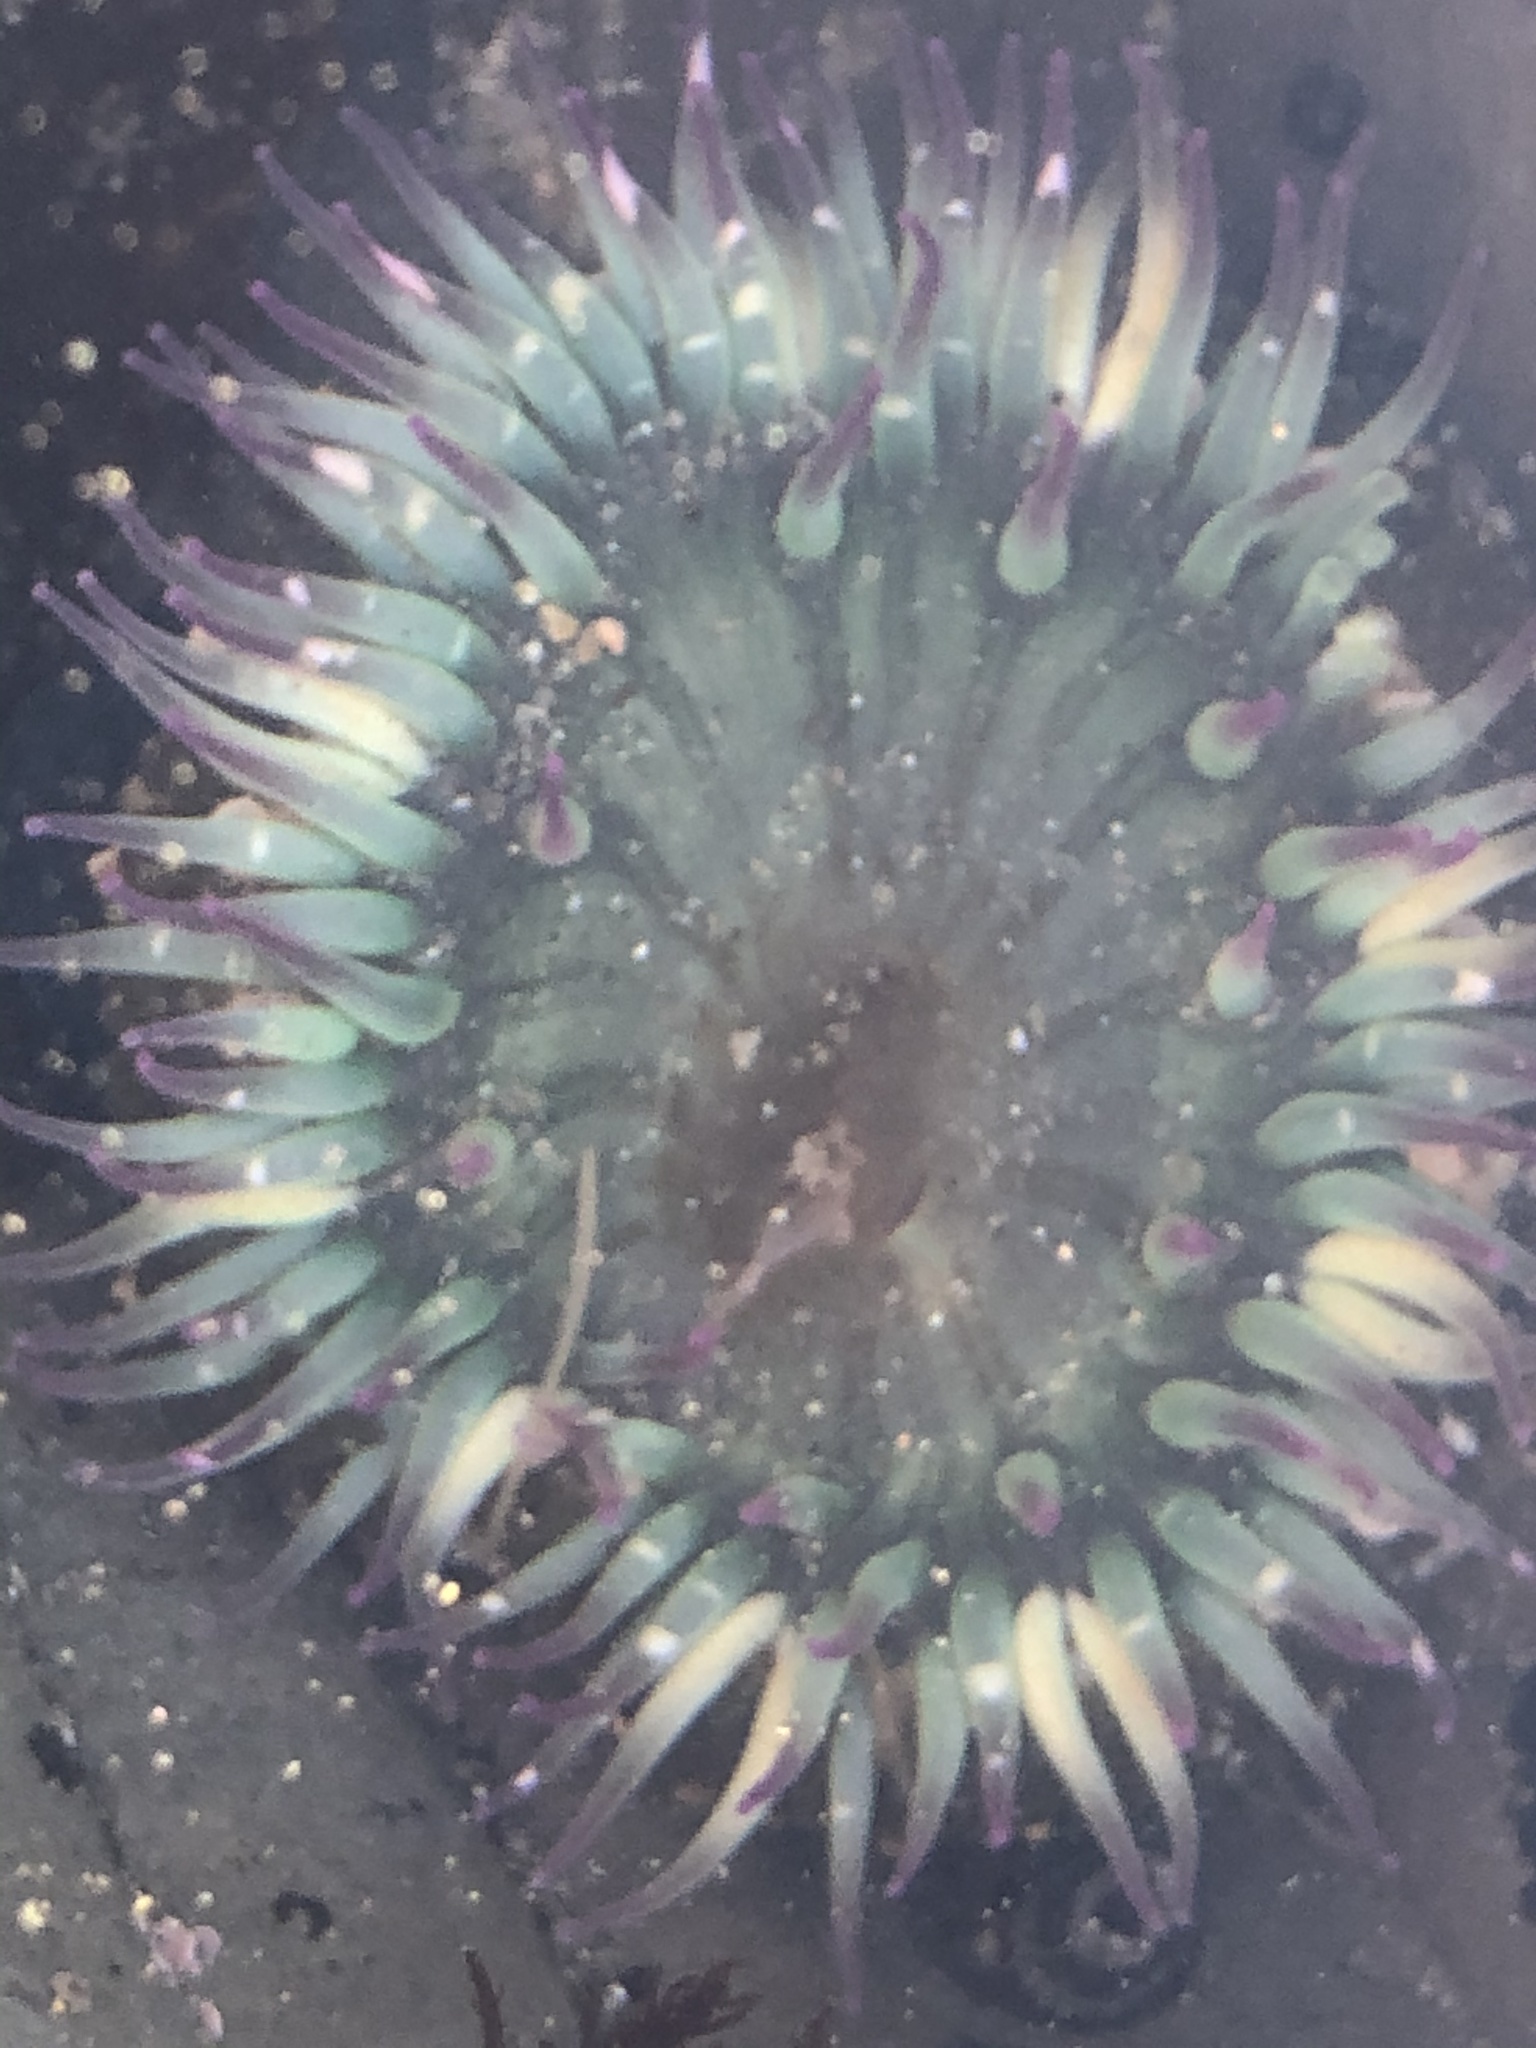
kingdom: Animalia
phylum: Cnidaria
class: Anthozoa
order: Actiniaria
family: Actiniidae
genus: Anthopleura
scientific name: Anthopleura sola
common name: Sun anemone
